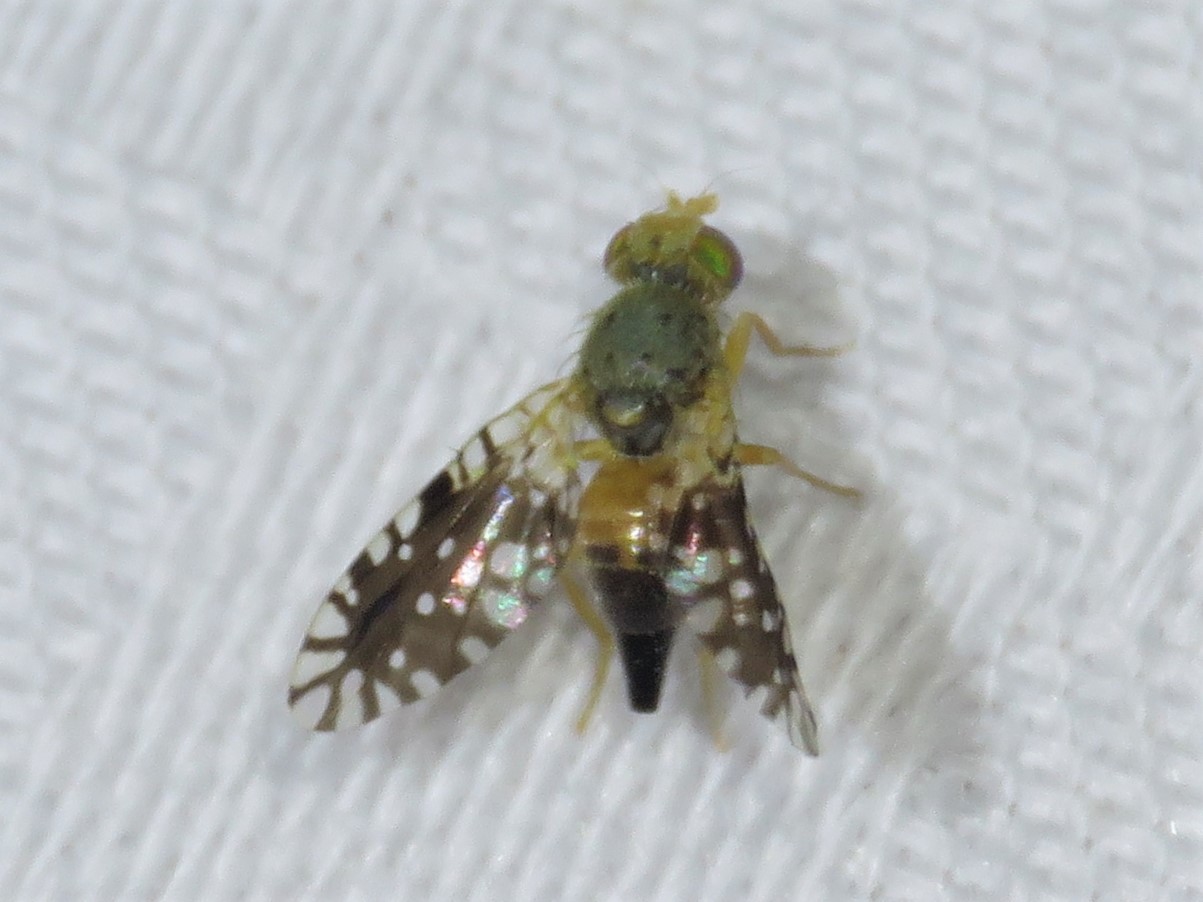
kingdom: Animalia
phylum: Arthropoda
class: Insecta
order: Diptera
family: Tephritidae
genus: Euaresta
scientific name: Euaresta bella
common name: Common ragweed fruit fly
